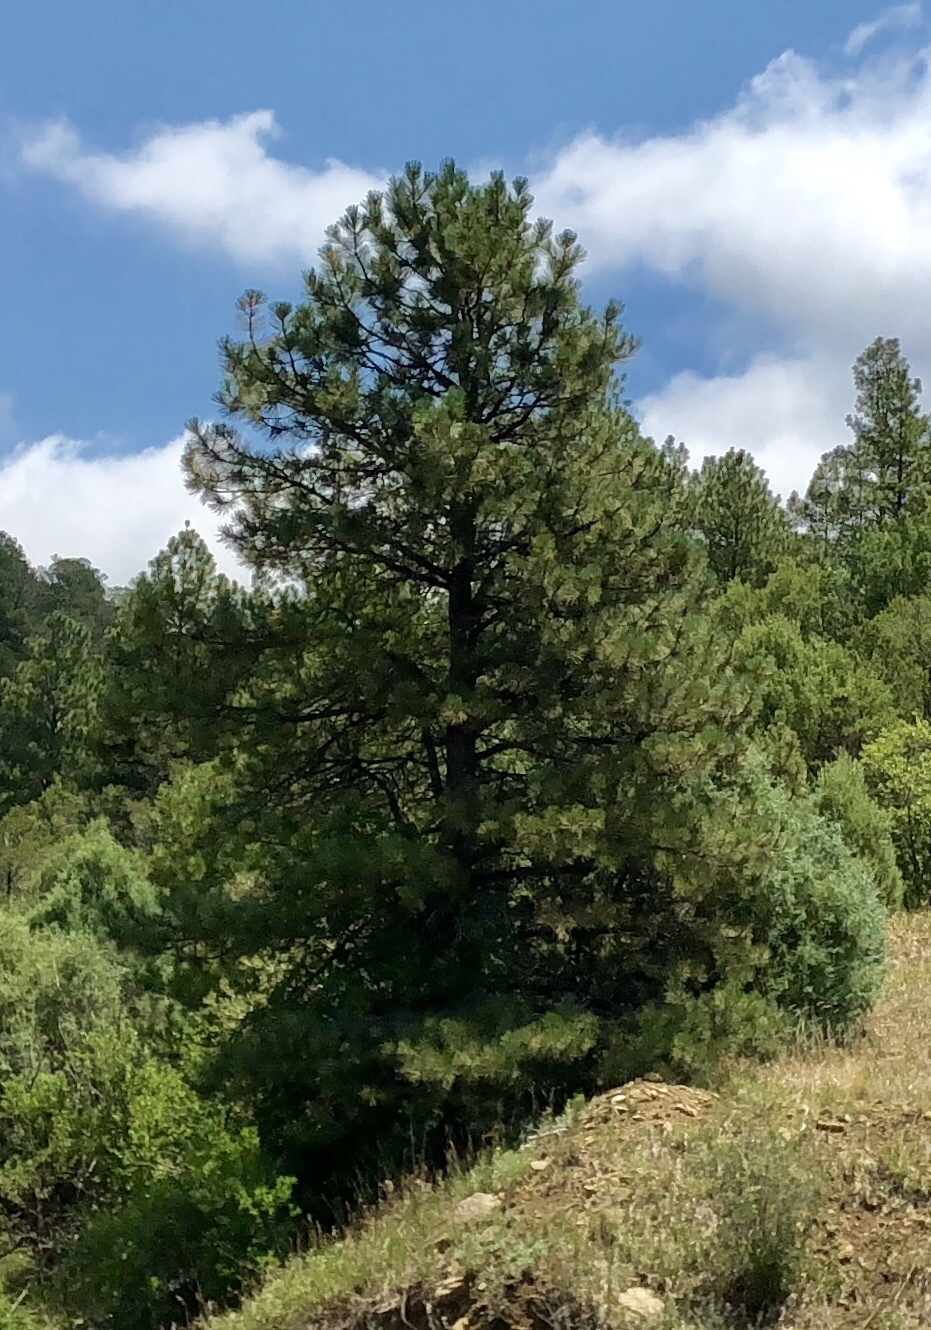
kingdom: Plantae
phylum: Tracheophyta
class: Pinopsida
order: Pinales
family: Pinaceae
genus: Pinus
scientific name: Pinus ponderosa
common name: Western yellow-pine
